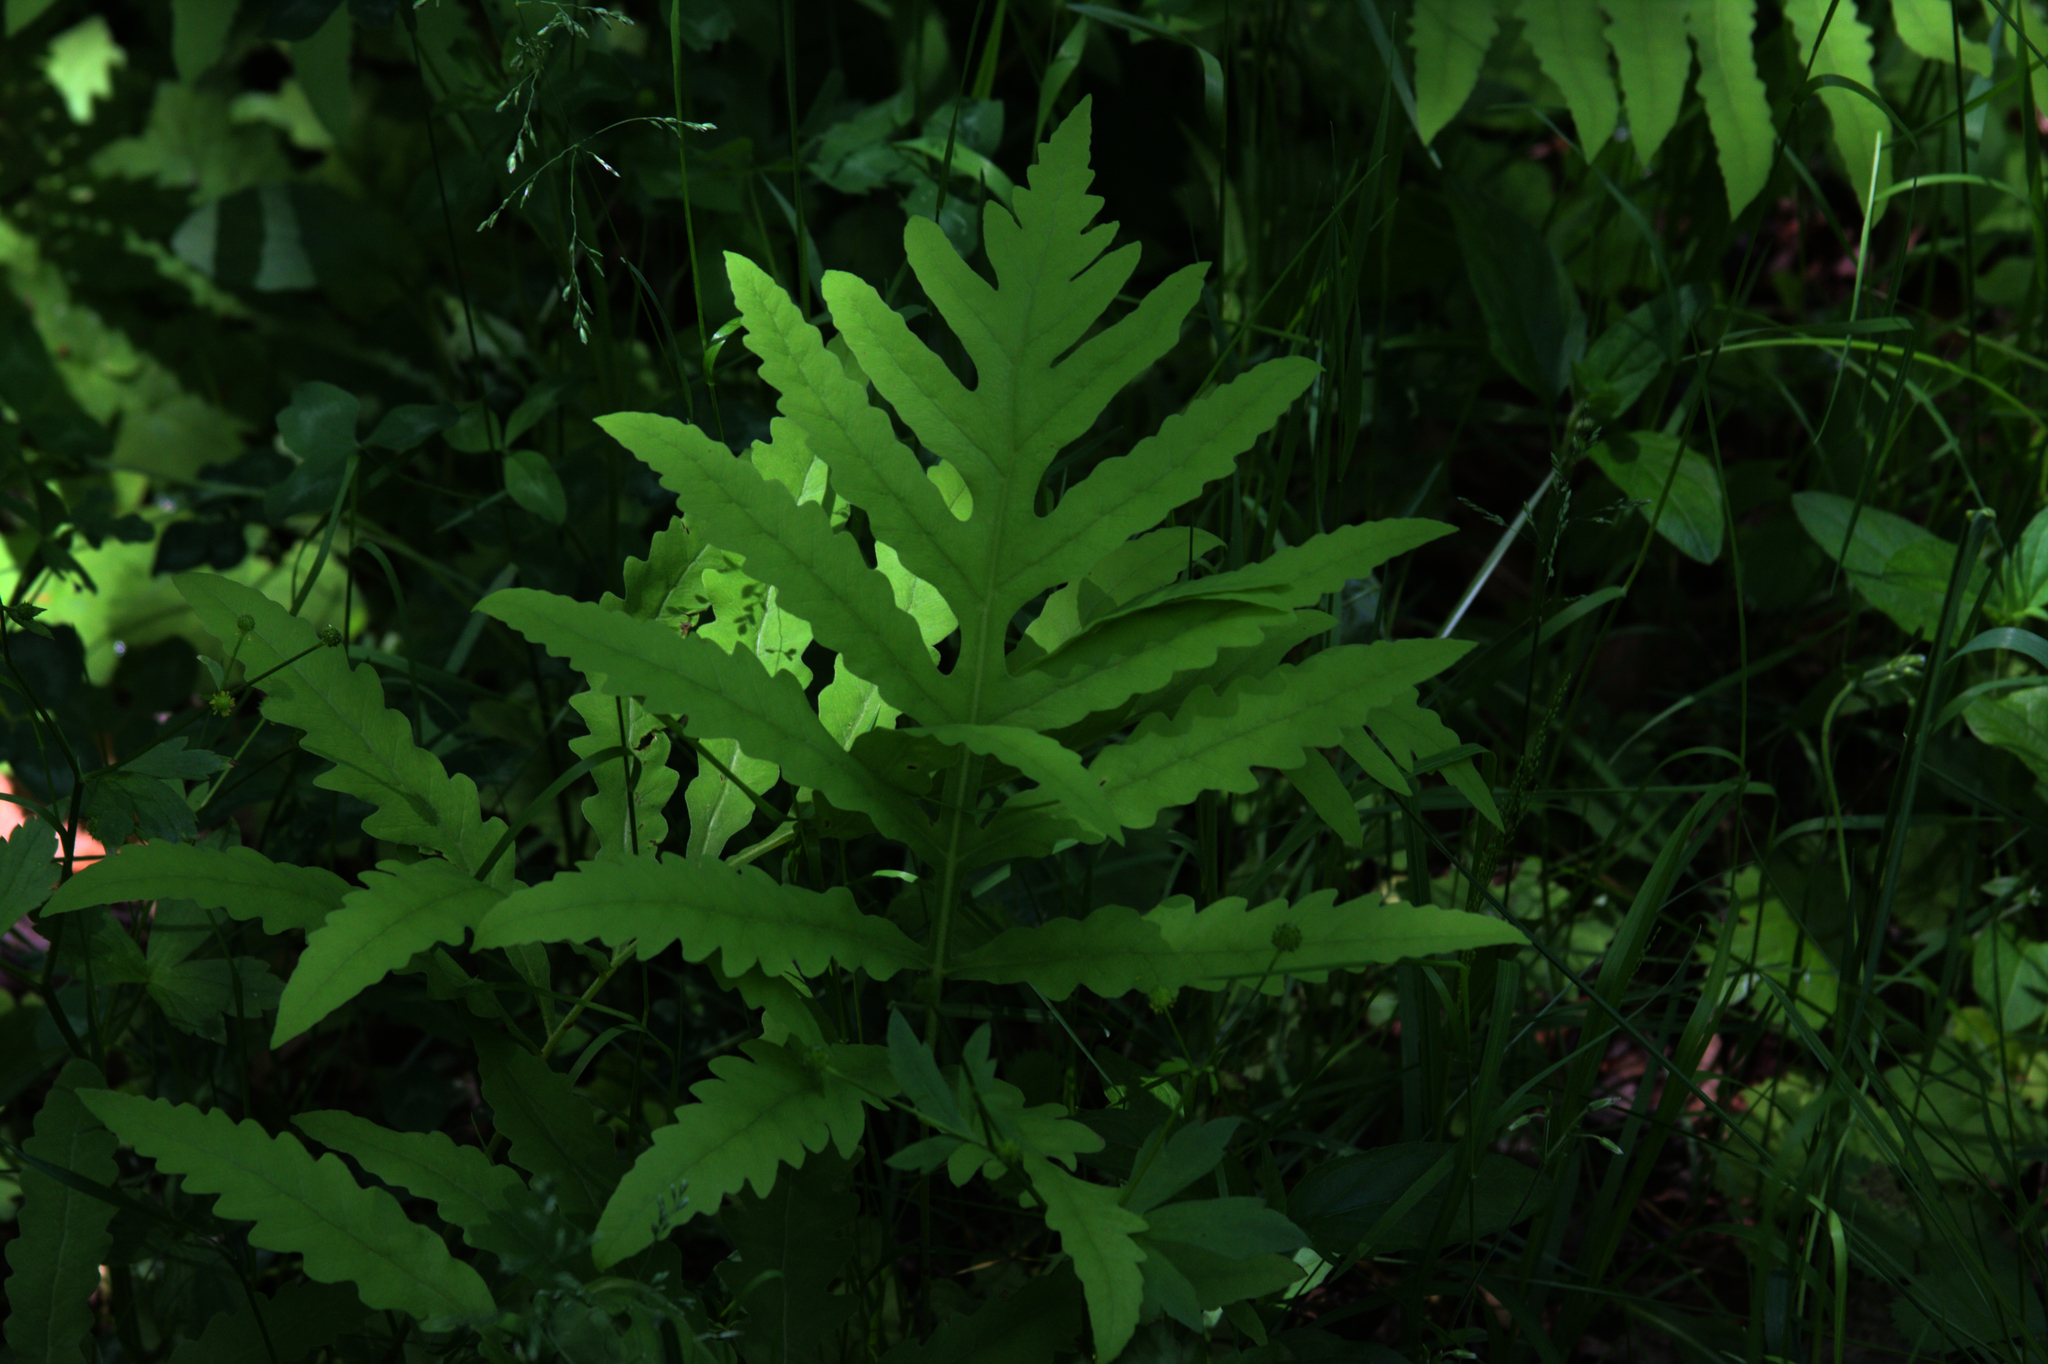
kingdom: Plantae
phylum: Tracheophyta
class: Polypodiopsida
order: Polypodiales
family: Onocleaceae
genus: Onoclea
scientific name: Onoclea sensibilis
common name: Sensitive fern
